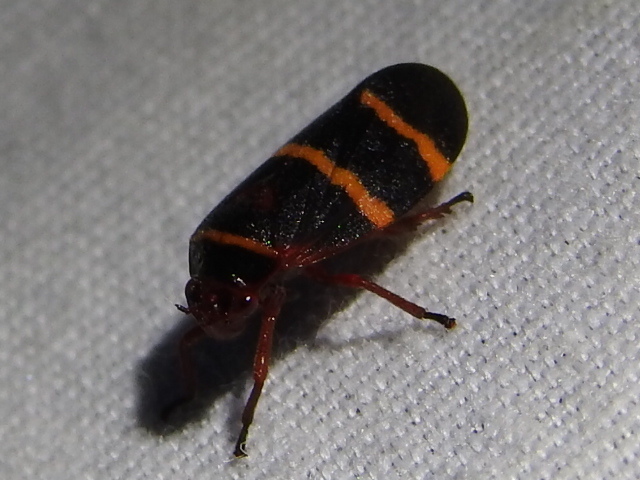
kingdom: Animalia
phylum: Arthropoda
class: Insecta
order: Hemiptera
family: Cercopidae
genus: Prosapia
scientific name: Prosapia bicincta
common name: Twolined spittlebug
